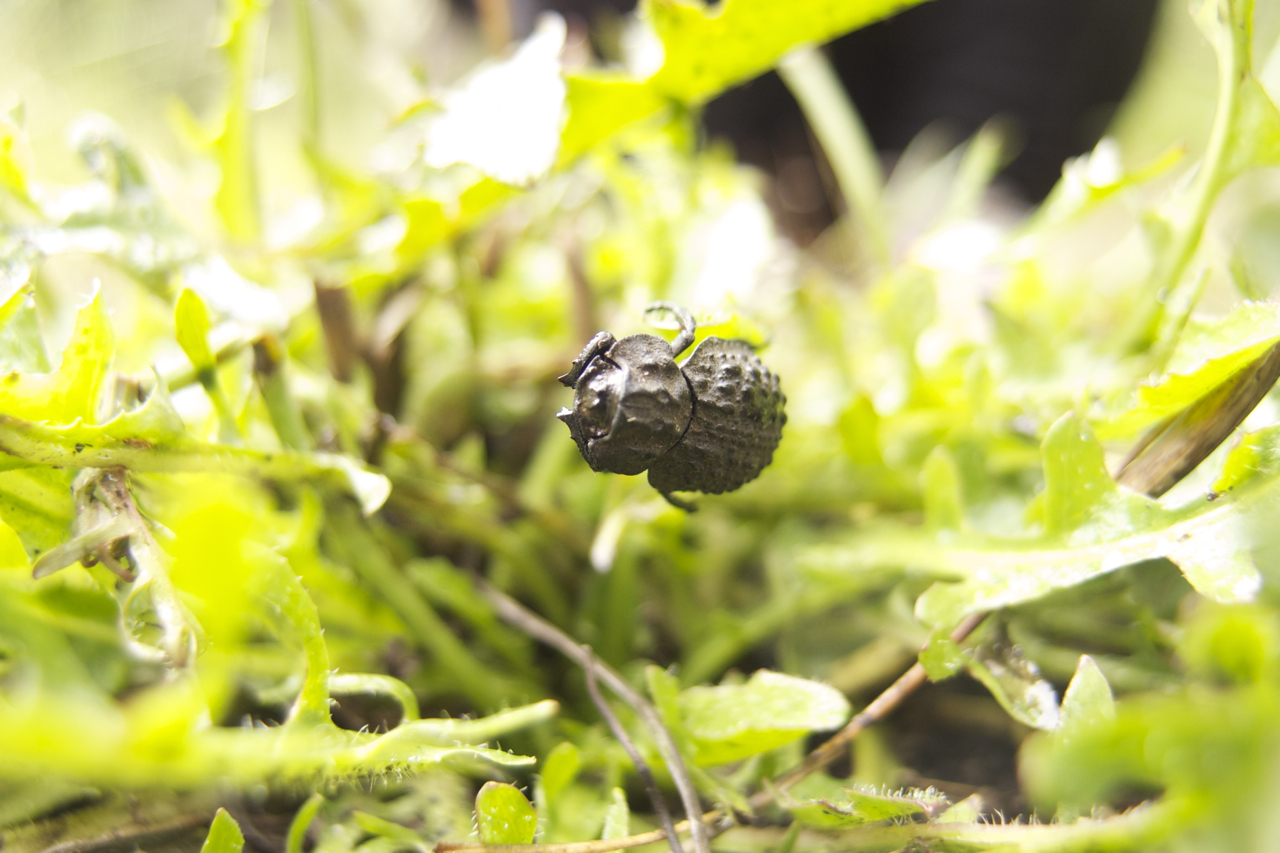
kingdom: Animalia
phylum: Arthropoda
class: Insecta
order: Coleoptera
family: Trogidae
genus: Polynoncus
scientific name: Polynoncus bullatus
